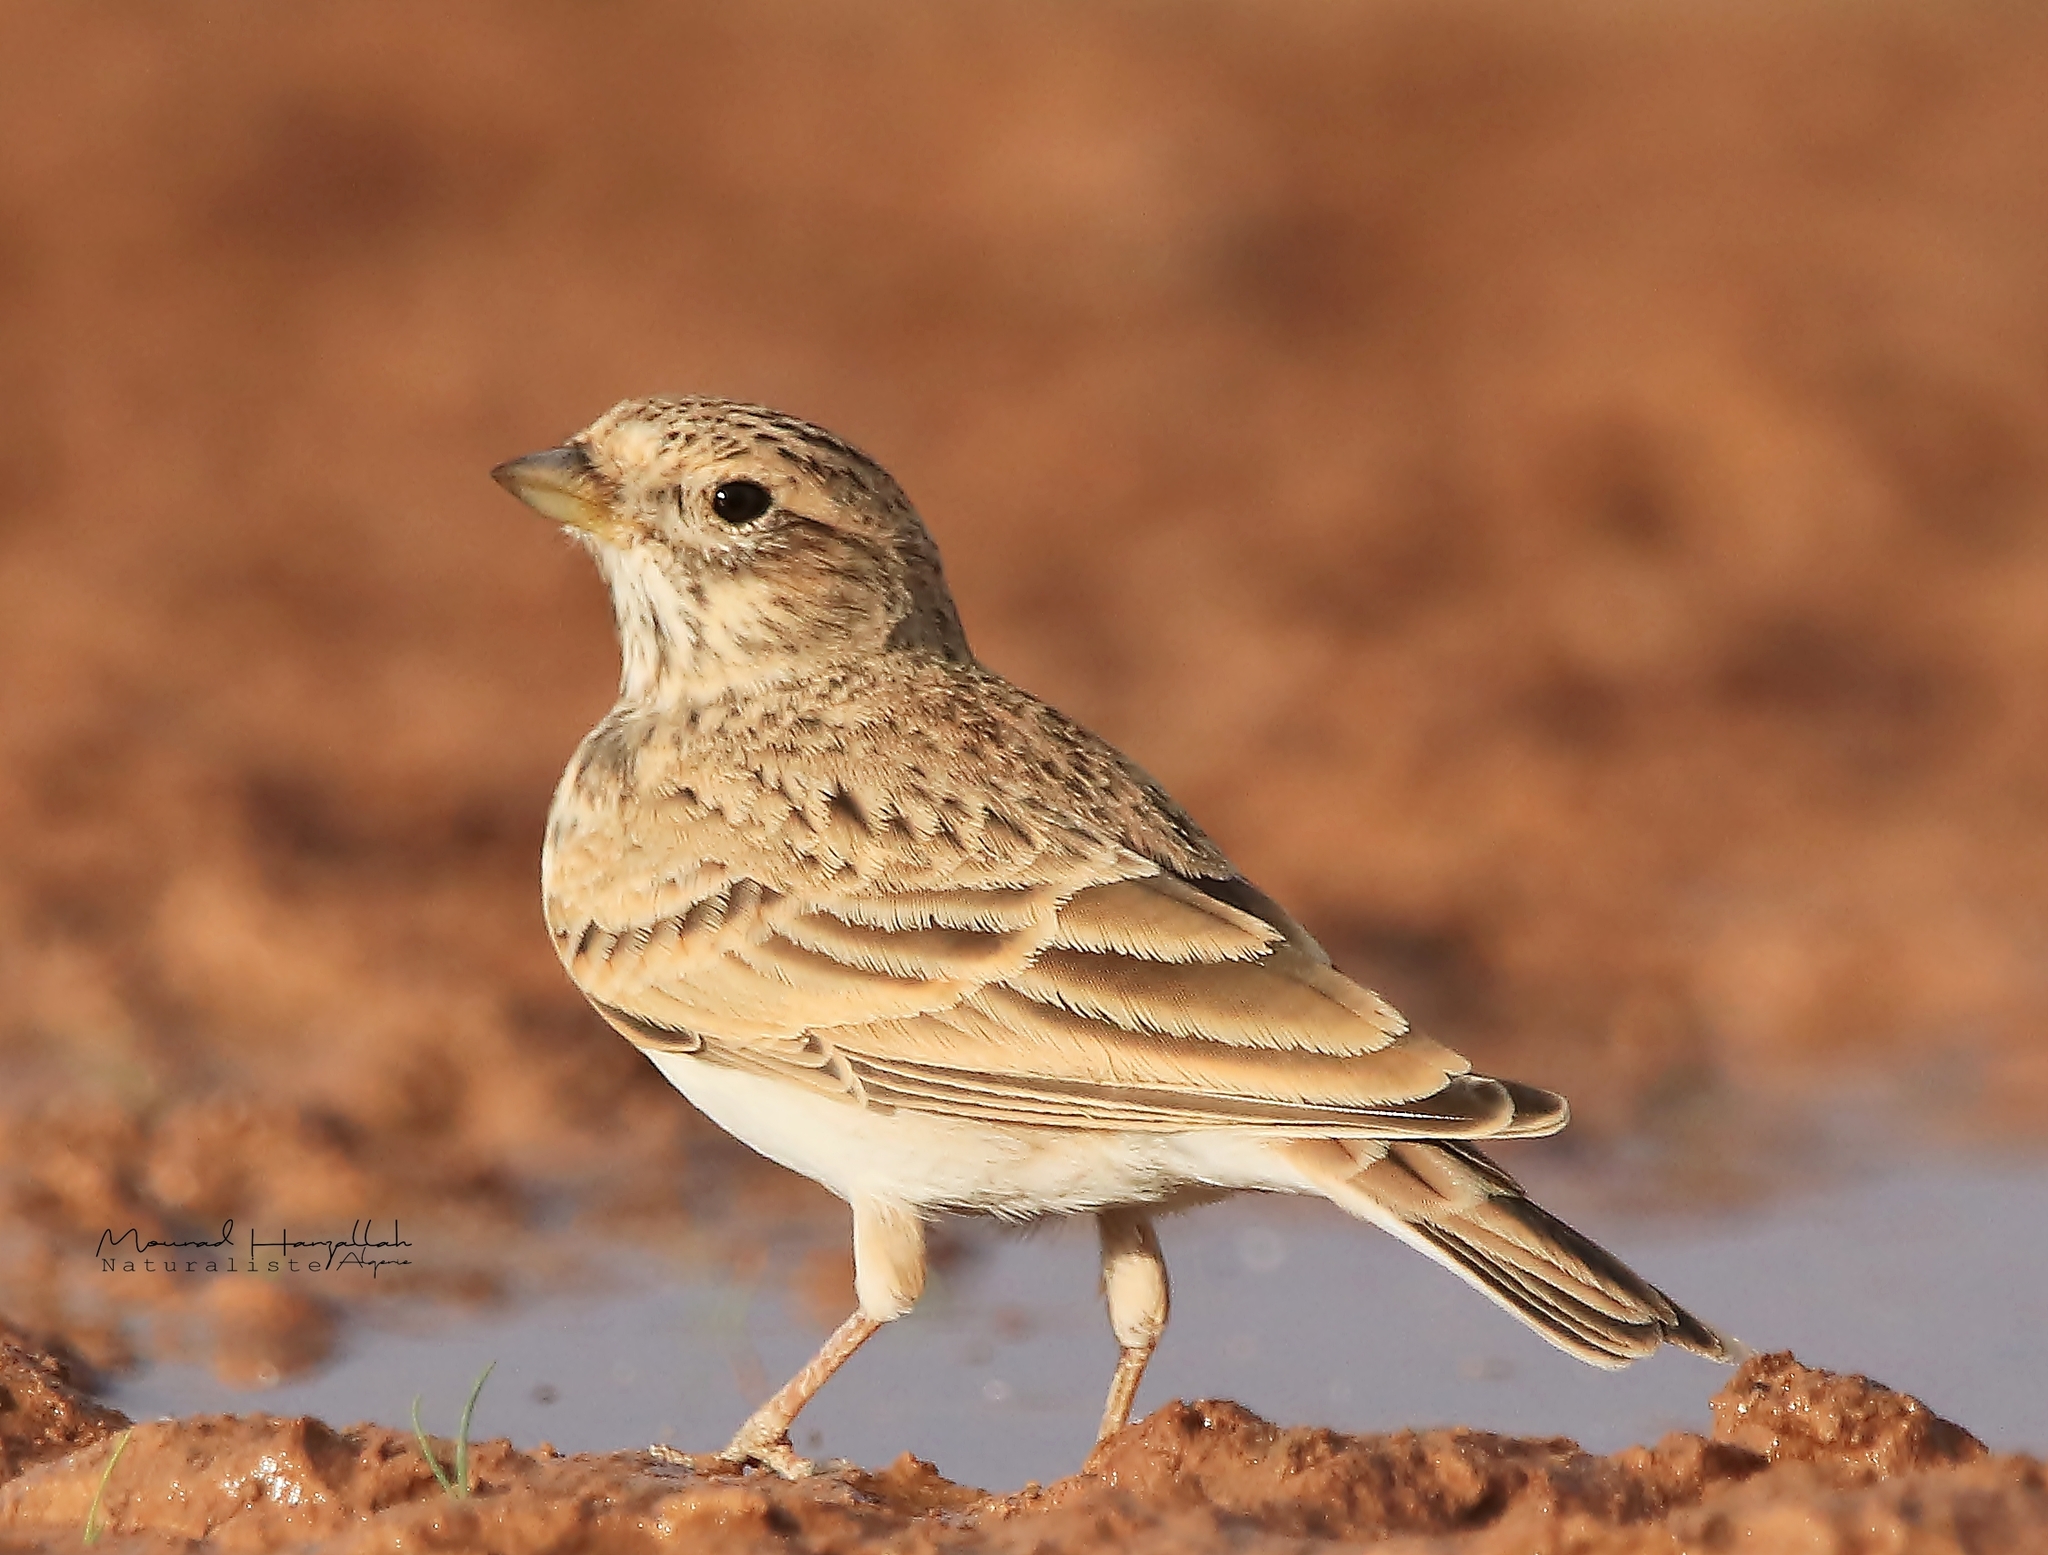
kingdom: Animalia
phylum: Chordata
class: Aves
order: Passeriformes
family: Alaudidae
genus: Calandrella
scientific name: Calandrella rufescens
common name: Lesser short-toed lark
